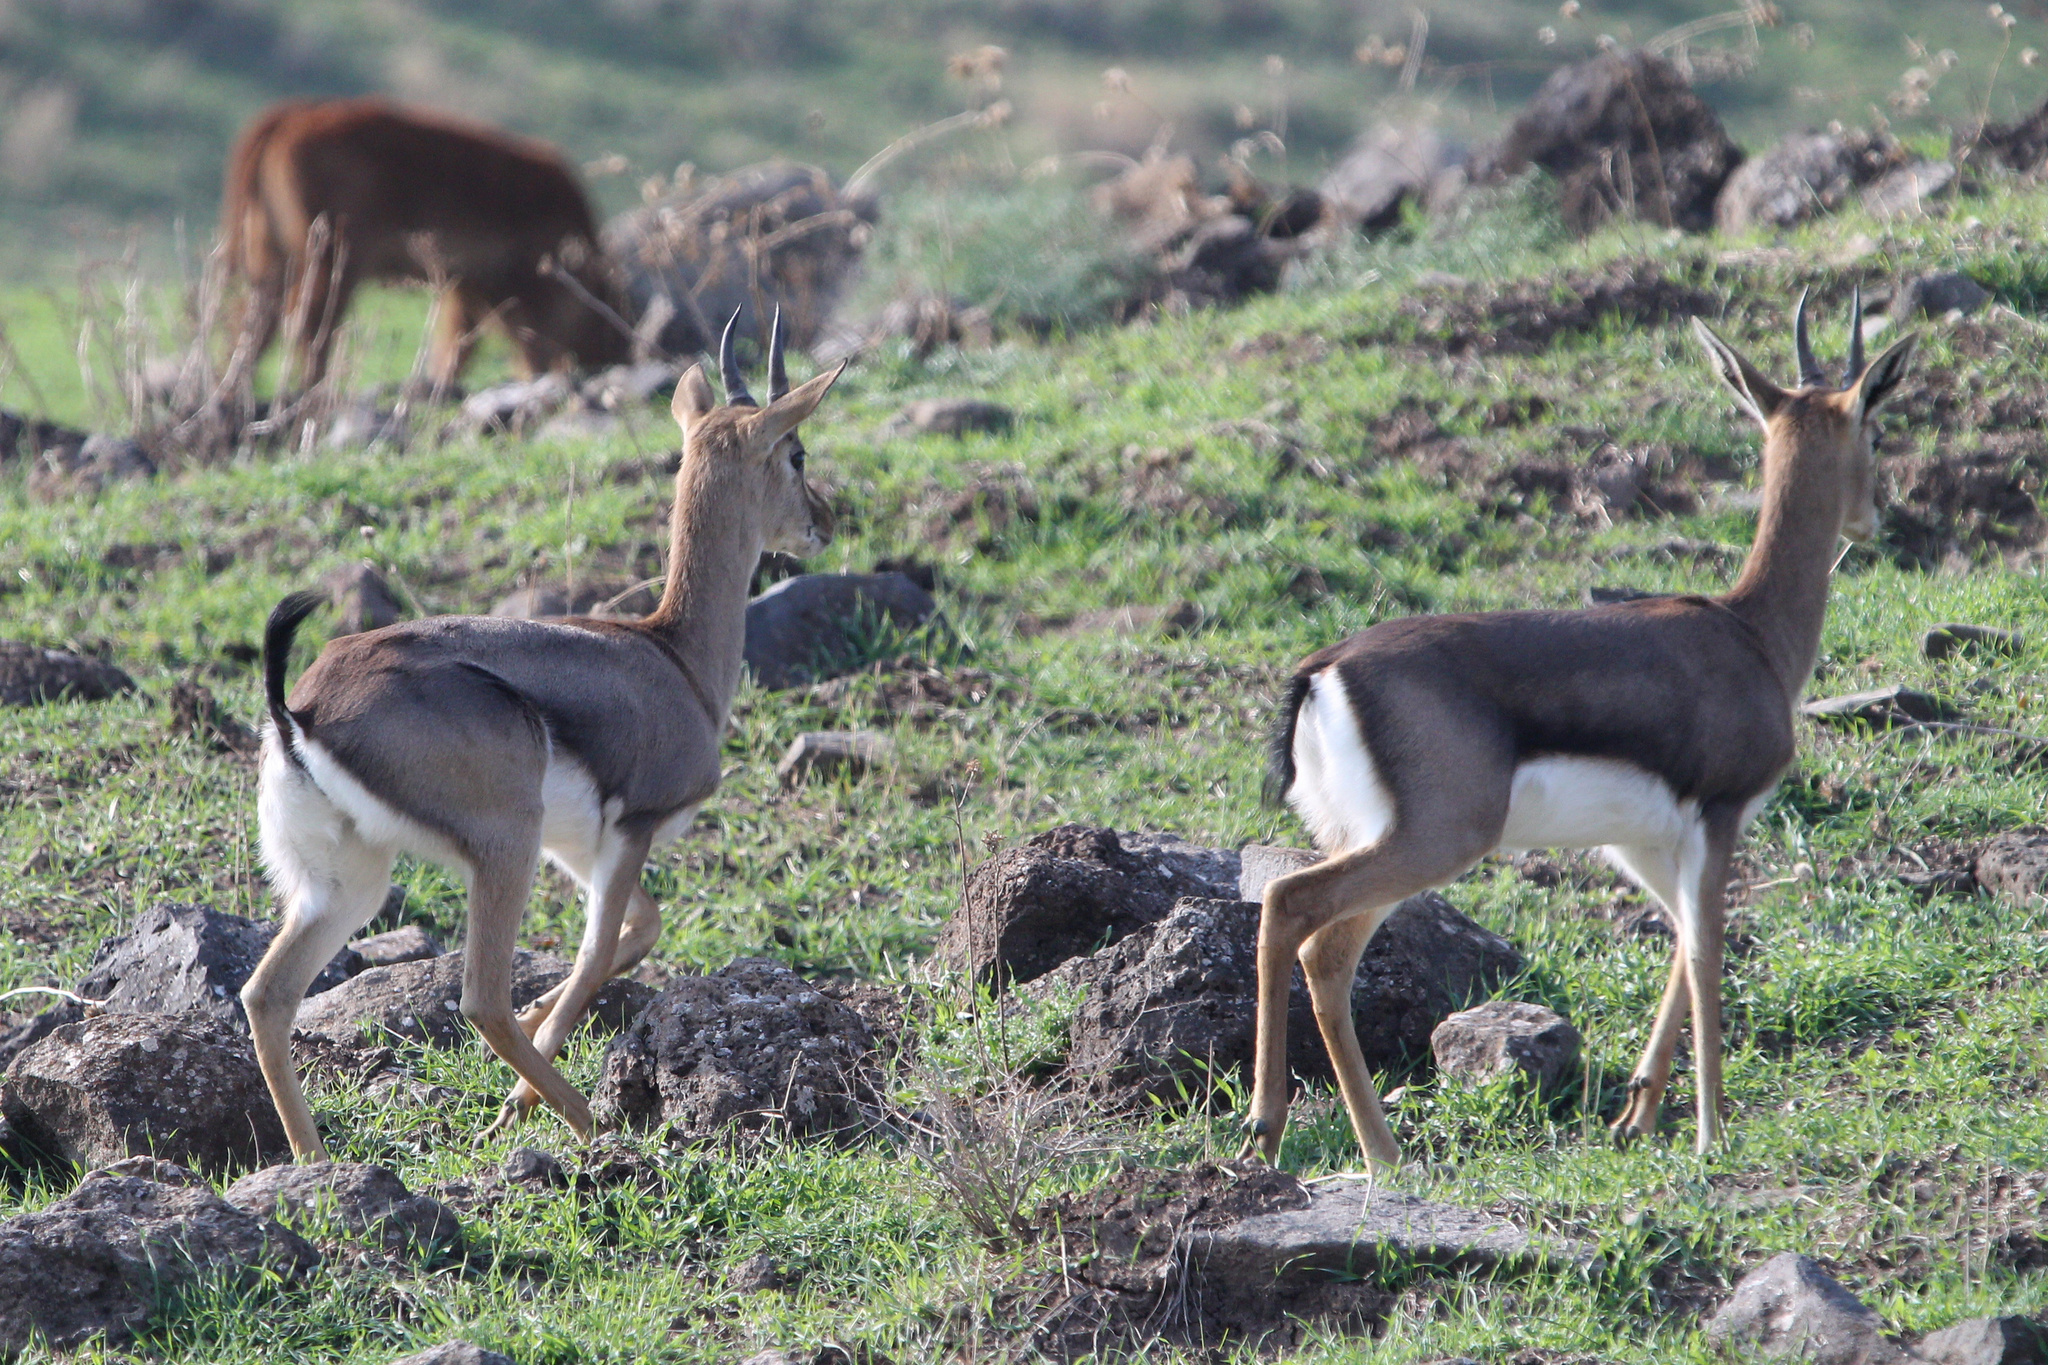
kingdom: Animalia
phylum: Chordata
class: Mammalia
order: Artiodactyla
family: Bovidae
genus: Gazella
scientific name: Gazella gazella
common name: Mountain gazelle
